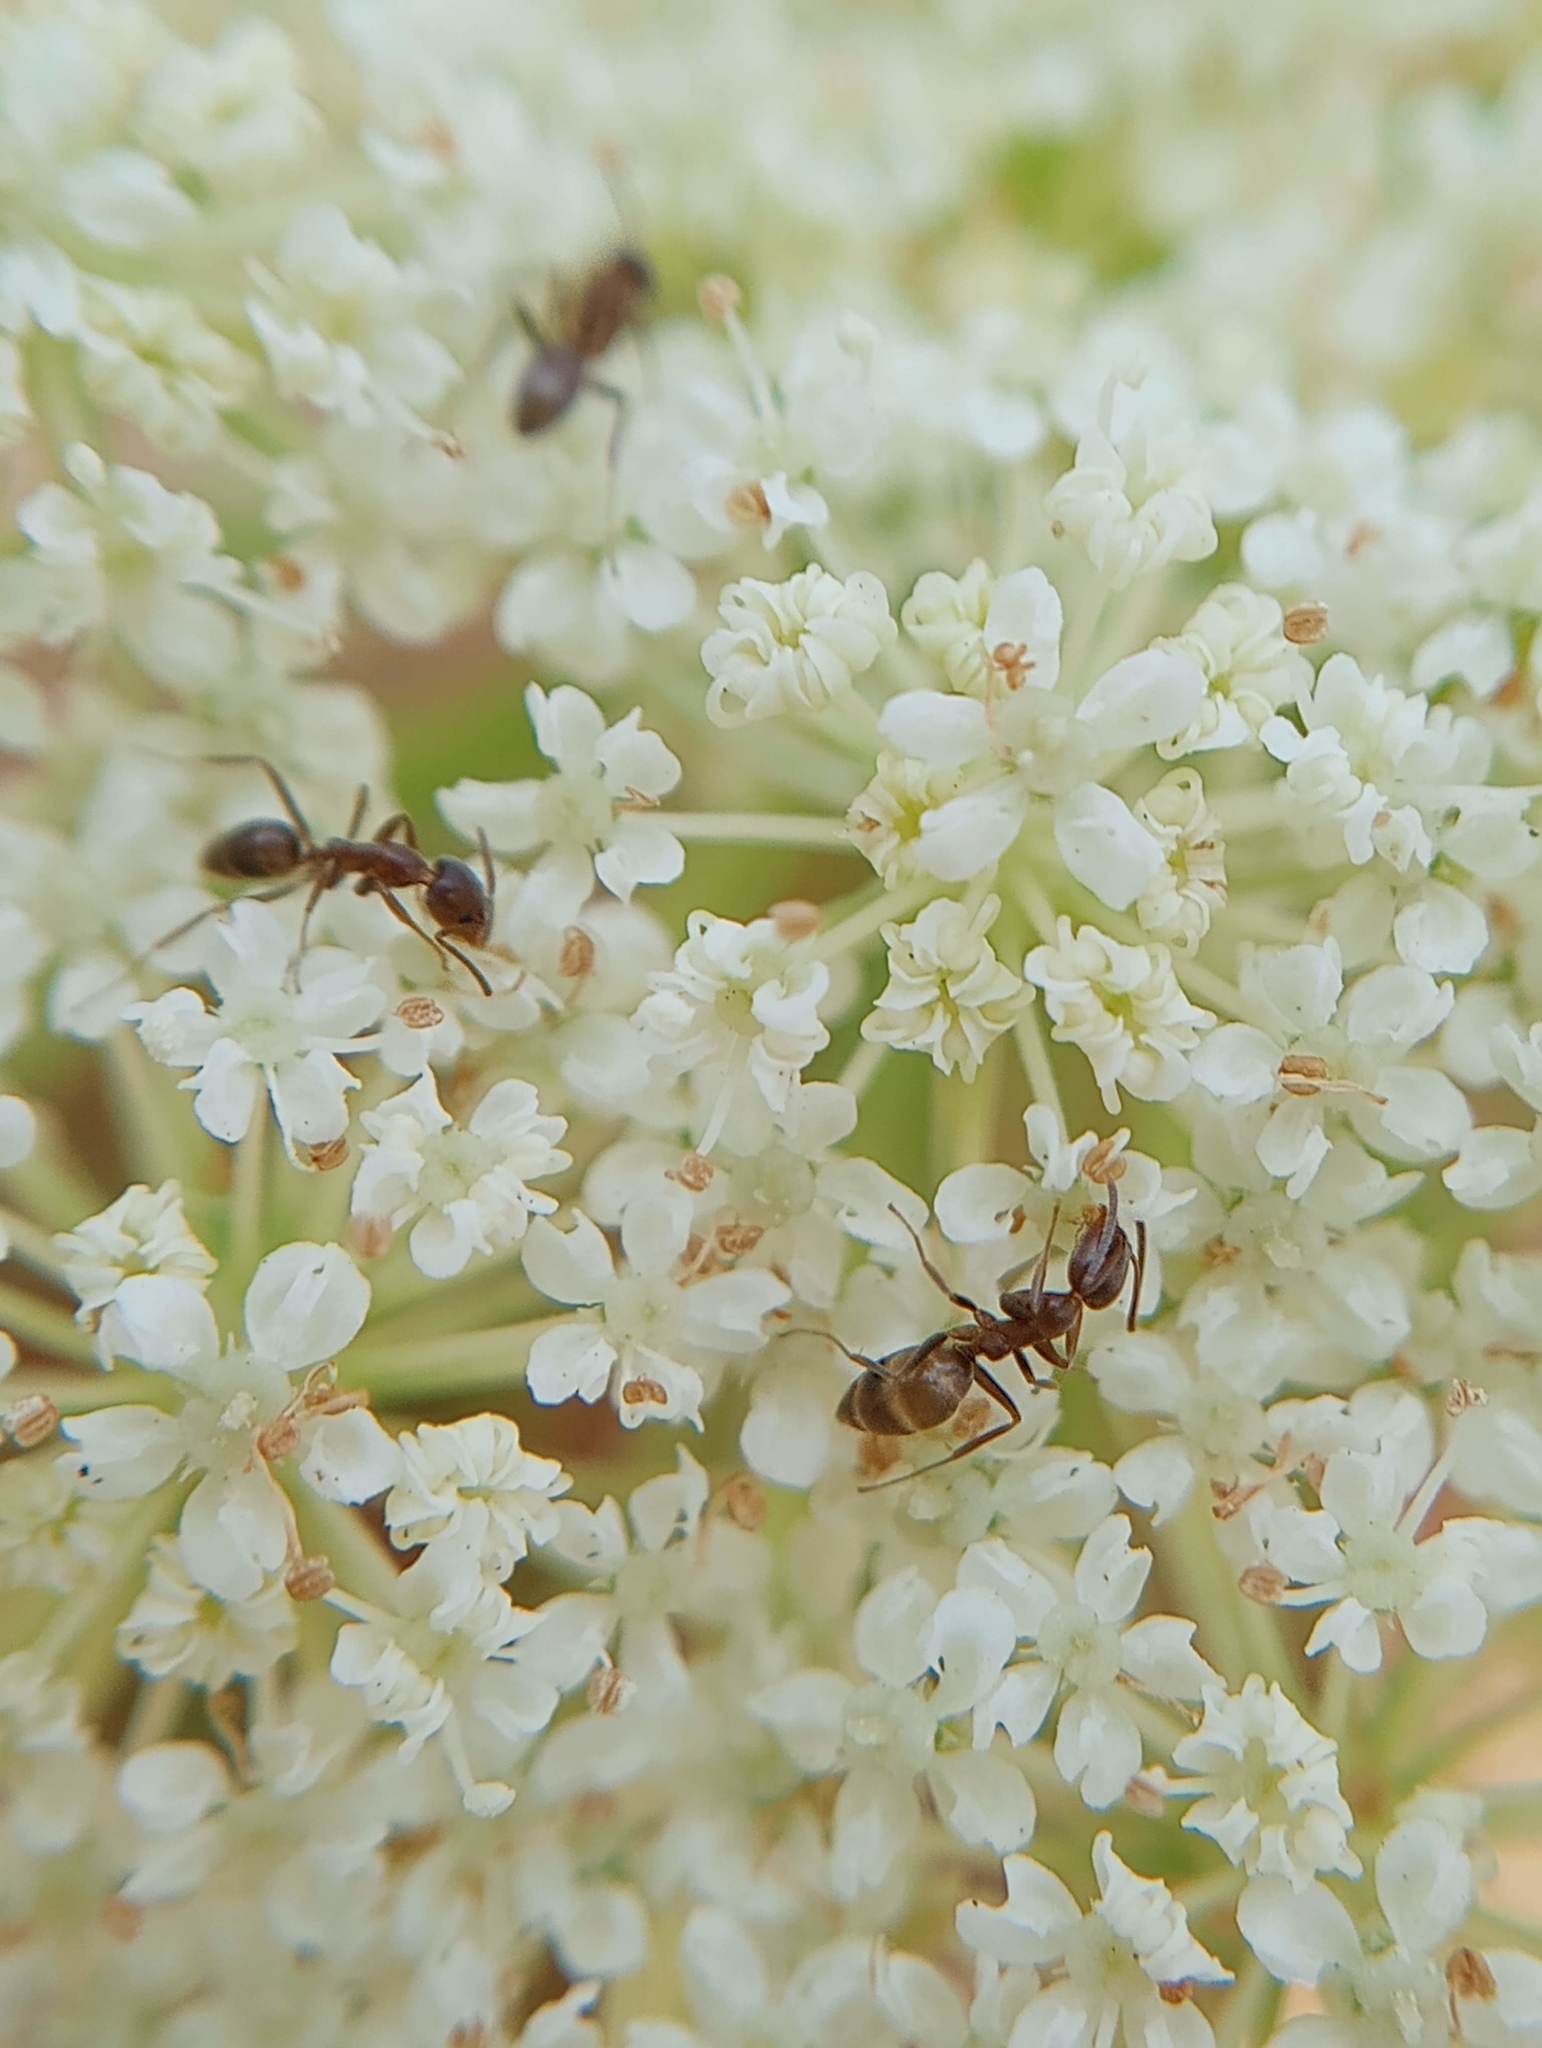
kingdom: Animalia
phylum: Arthropoda
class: Insecta
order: Hymenoptera
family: Formicidae
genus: Linepithema
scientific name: Linepithema humile
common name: Argentine ant
